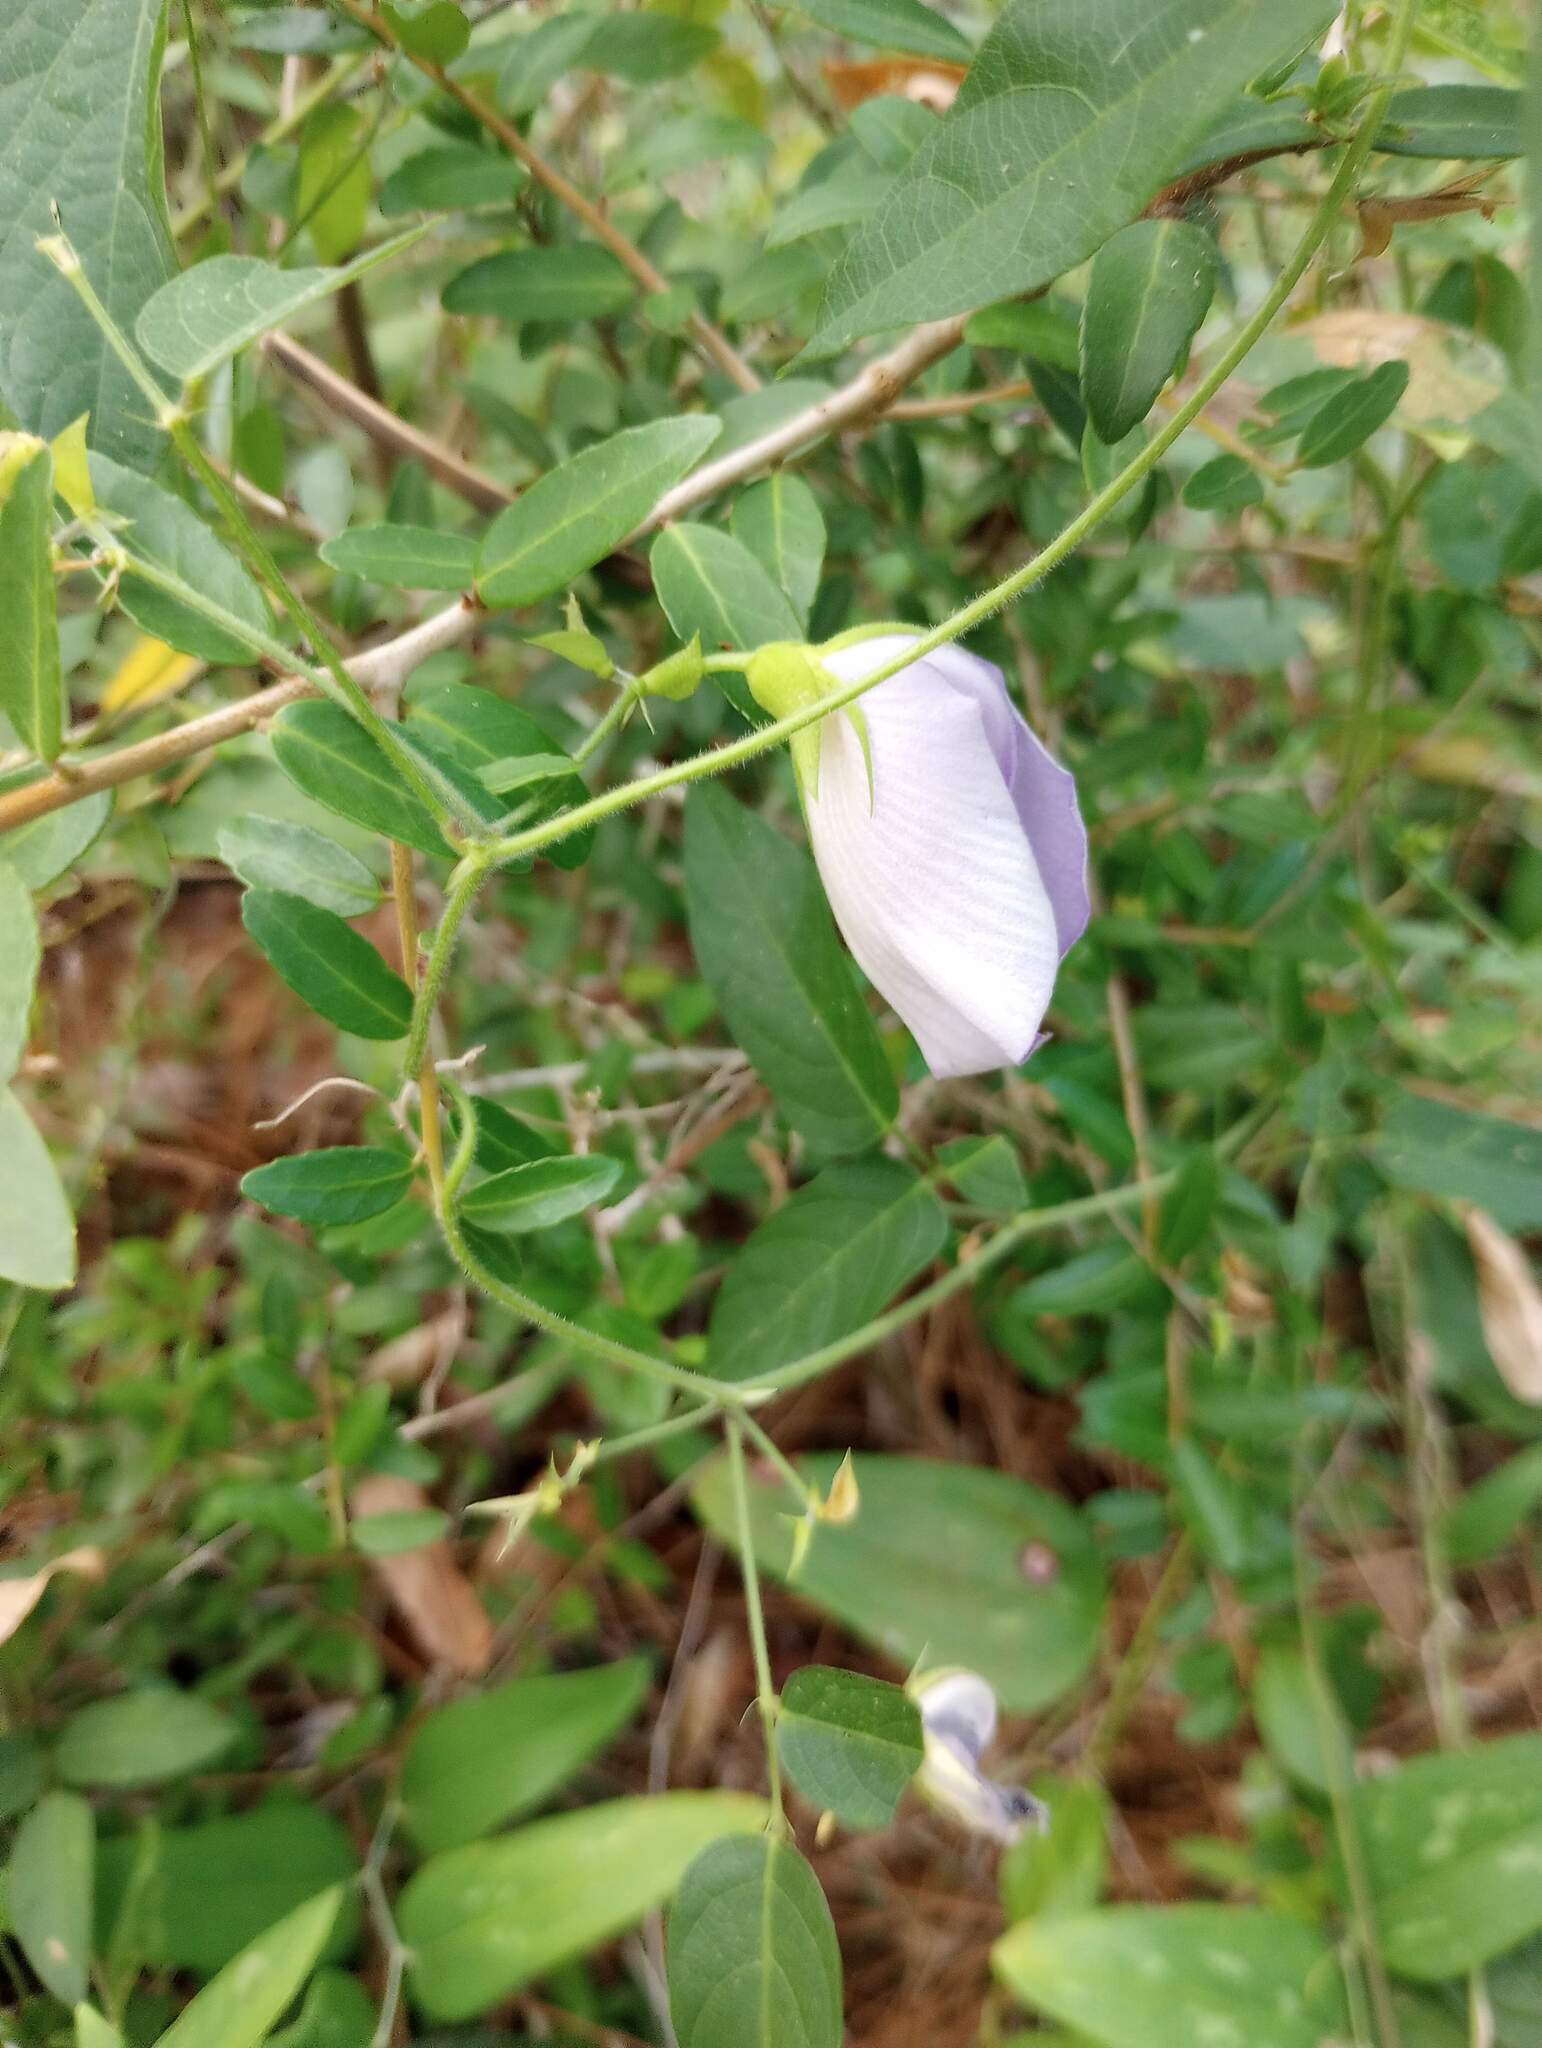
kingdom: Plantae
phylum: Tracheophyta
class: Magnoliopsida
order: Fabales
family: Fabaceae
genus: Centrosema
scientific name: Centrosema virginianum
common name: Butterfly-pea
